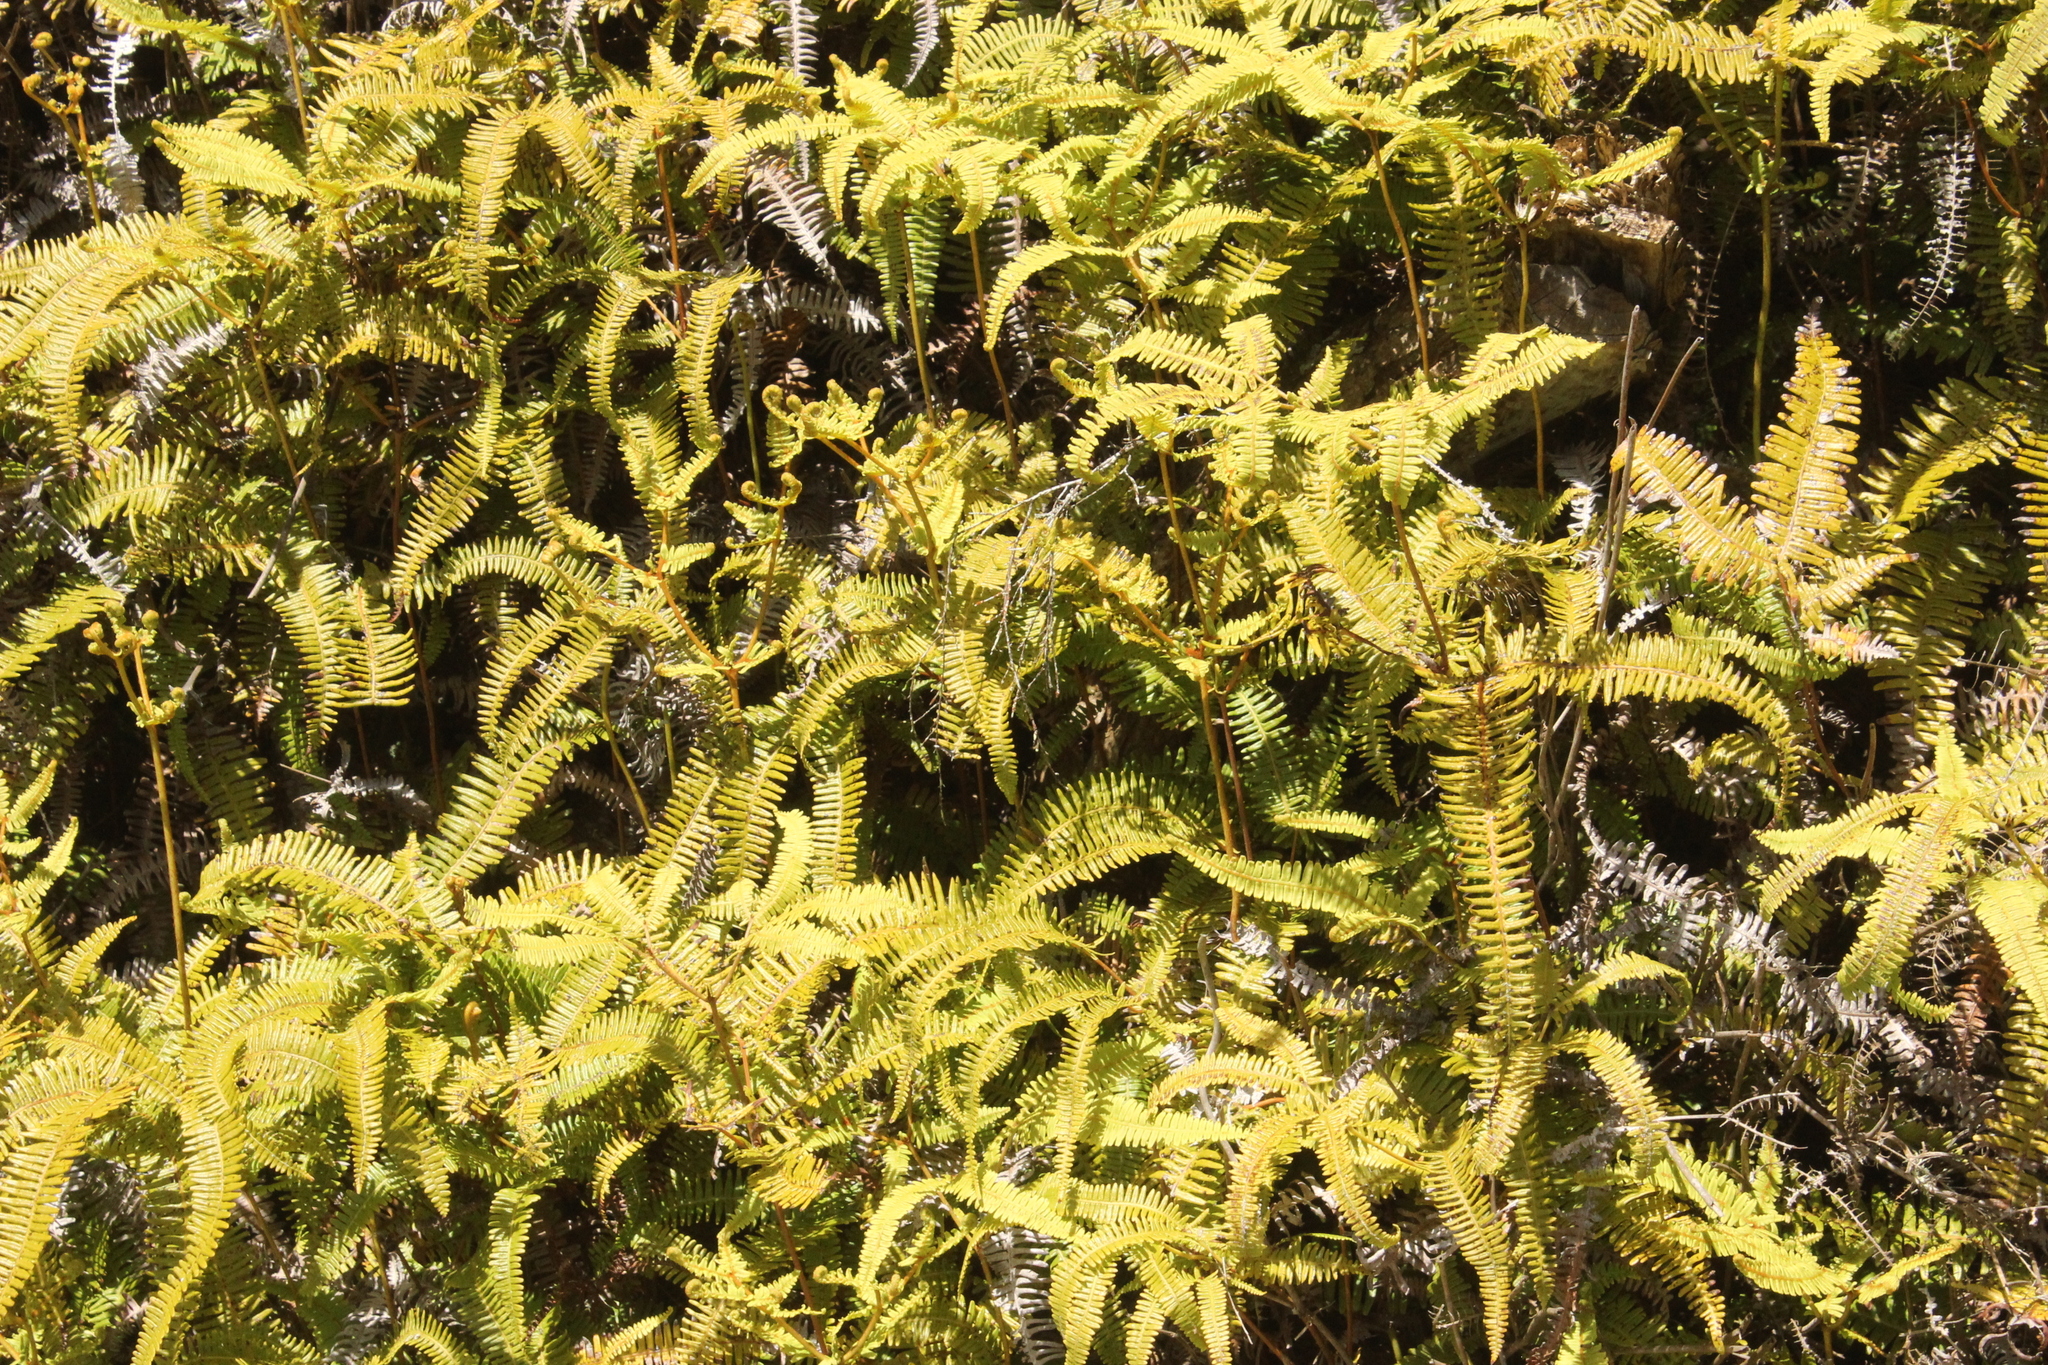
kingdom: Plantae
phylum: Tracheophyta
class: Polypodiopsida
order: Gleicheniales
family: Gleicheniaceae
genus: Dicranopteris
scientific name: Dicranopteris linearis
